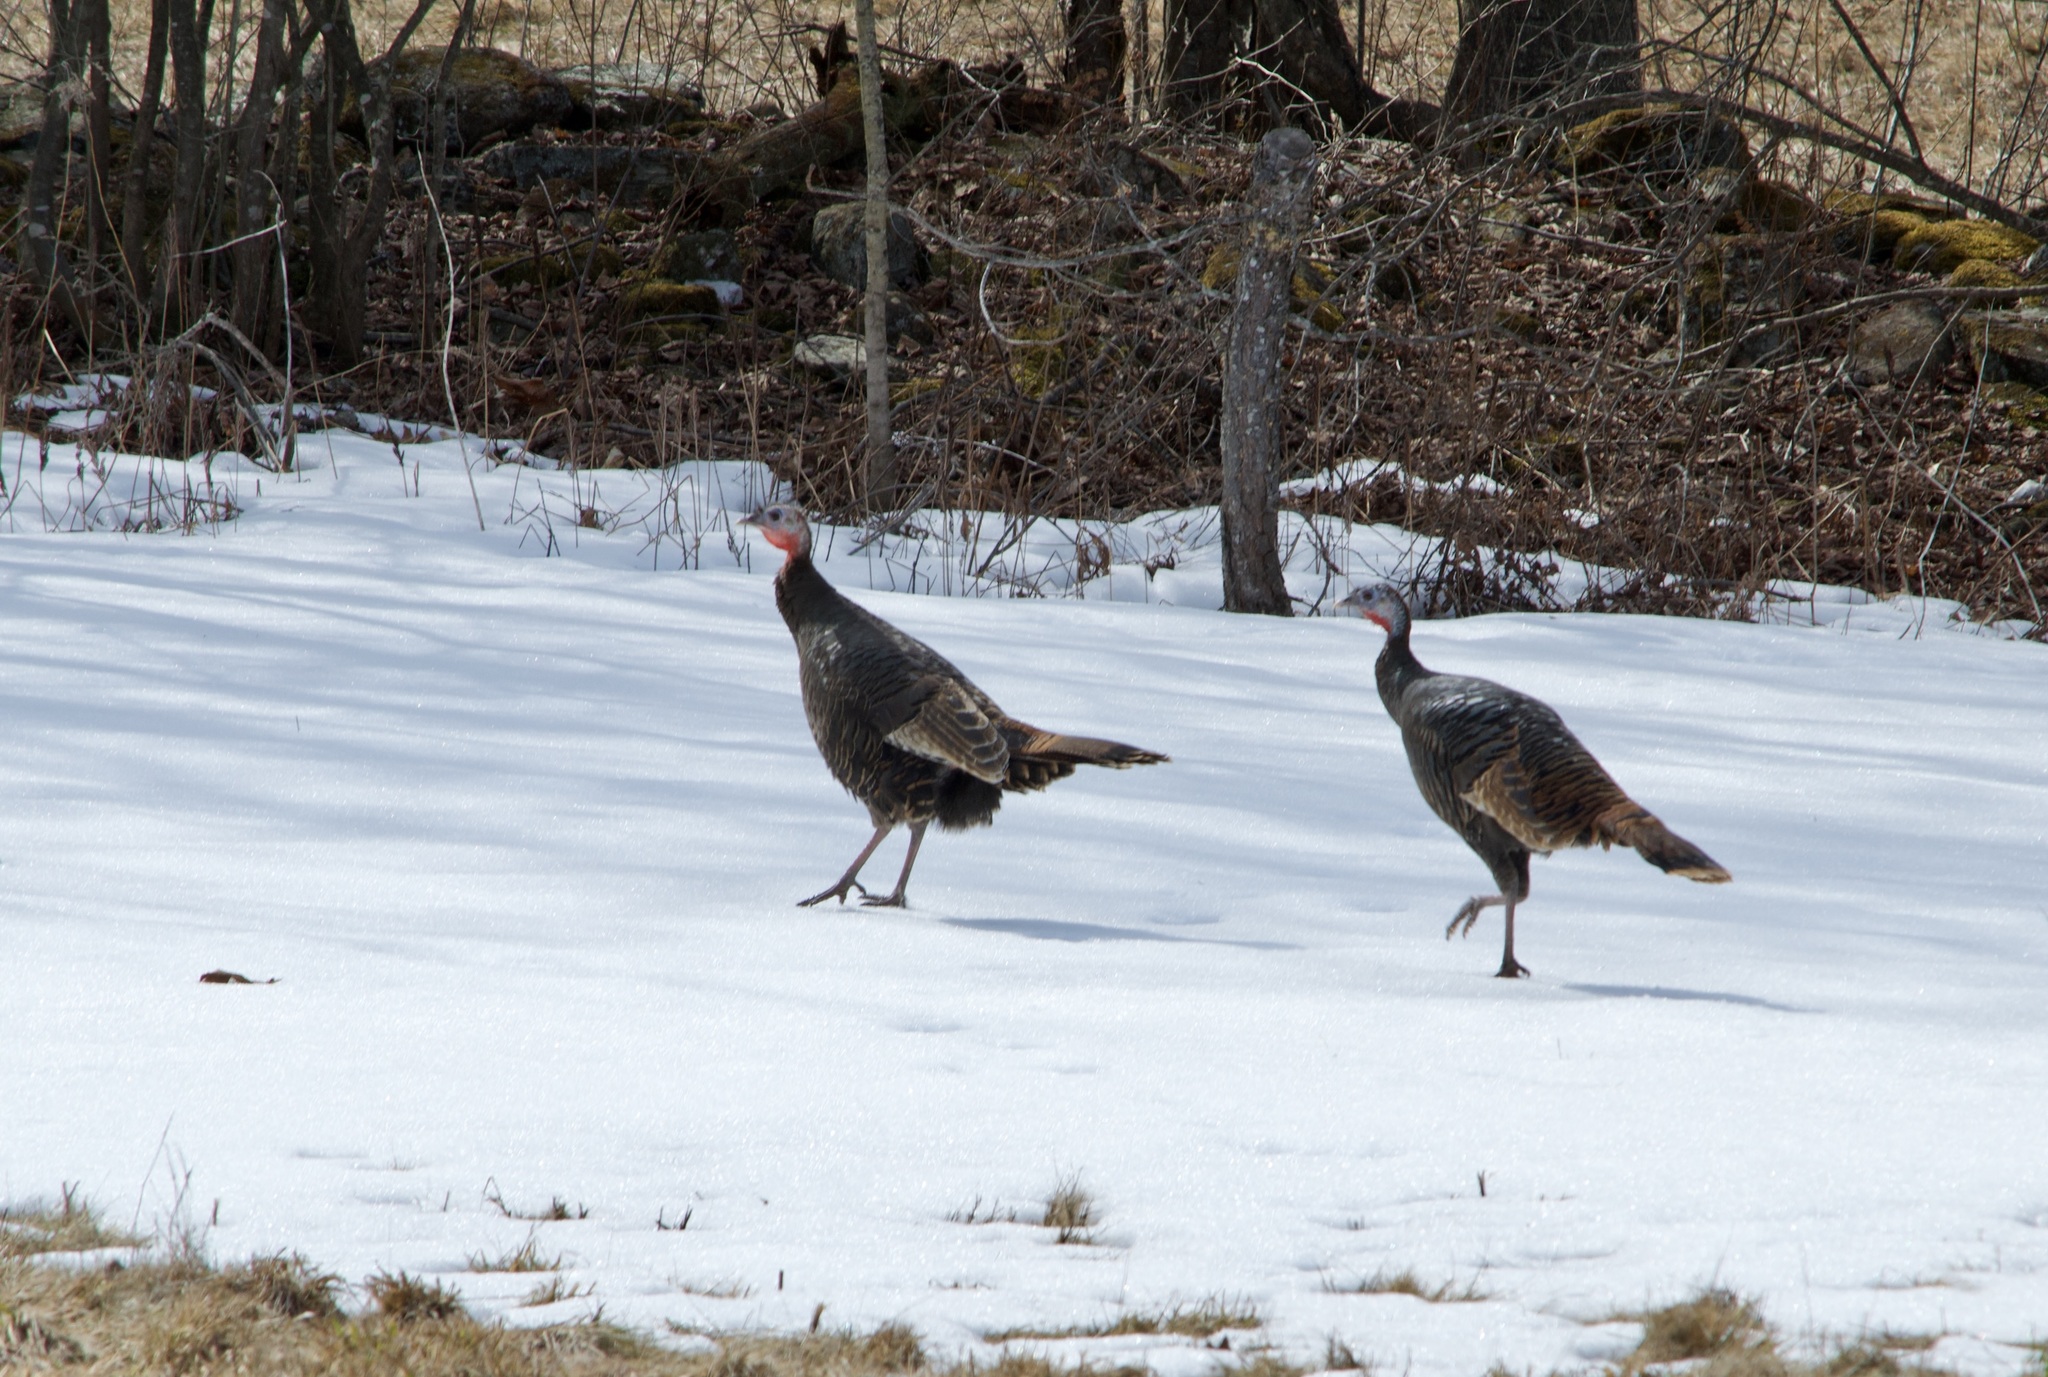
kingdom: Animalia
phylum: Chordata
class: Aves
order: Galliformes
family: Phasianidae
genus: Meleagris
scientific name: Meleagris gallopavo
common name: Wild turkey
